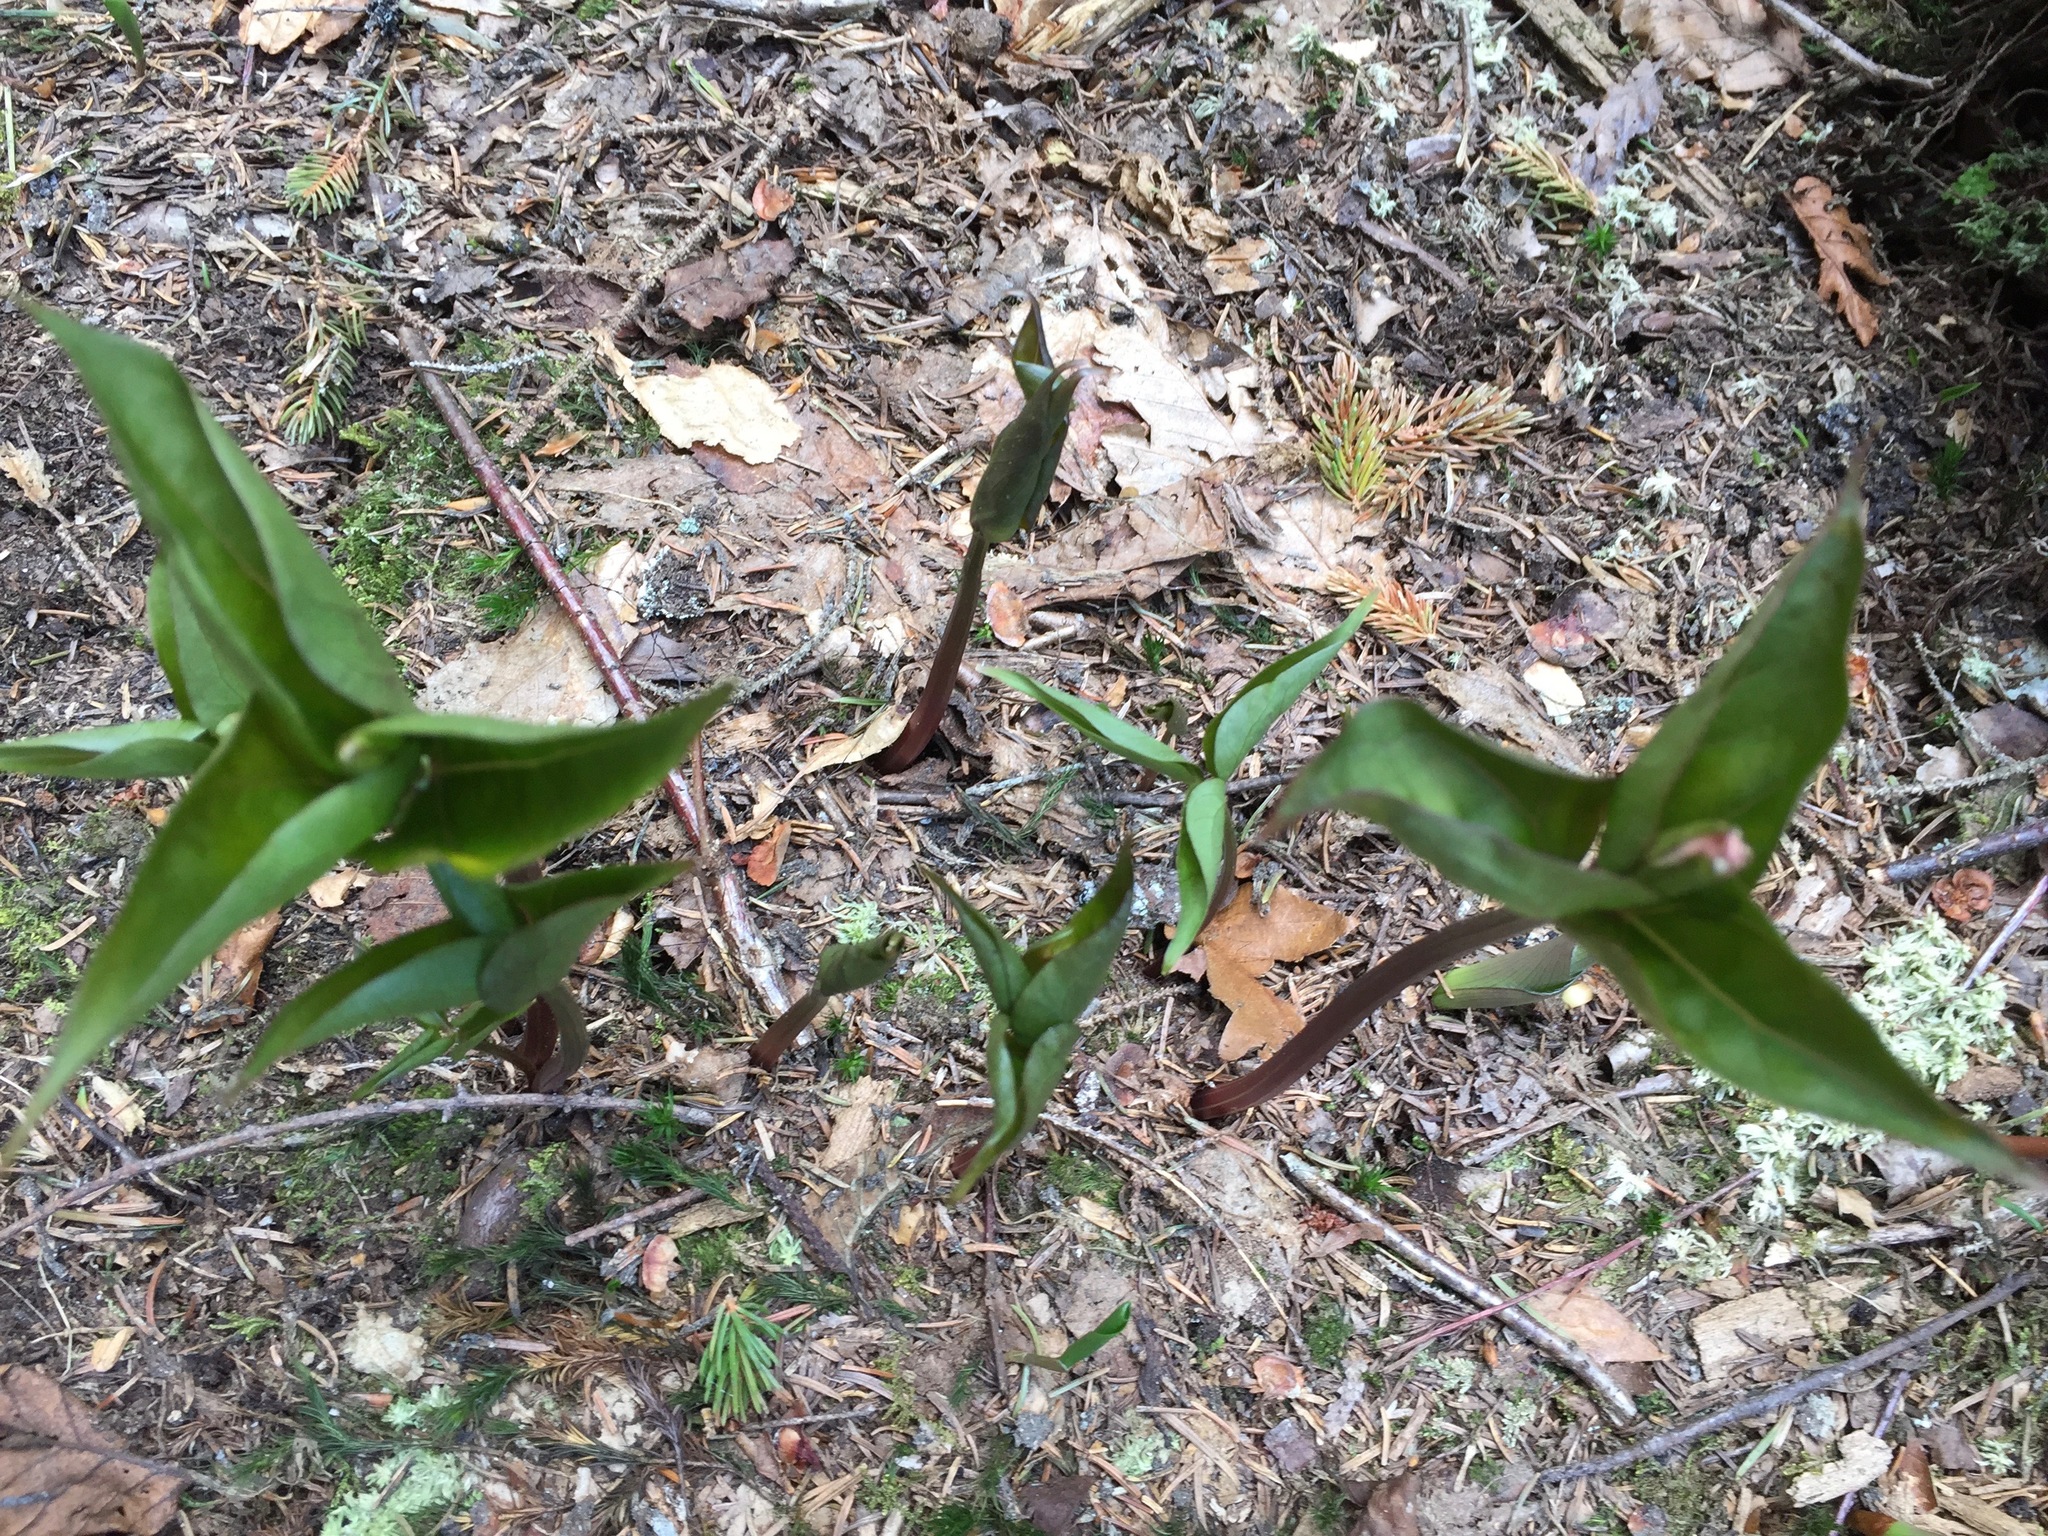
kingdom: Plantae
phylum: Tracheophyta
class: Liliopsida
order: Liliales
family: Melanthiaceae
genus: Trillium
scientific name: Trillium undulatum
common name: Paint trillium
